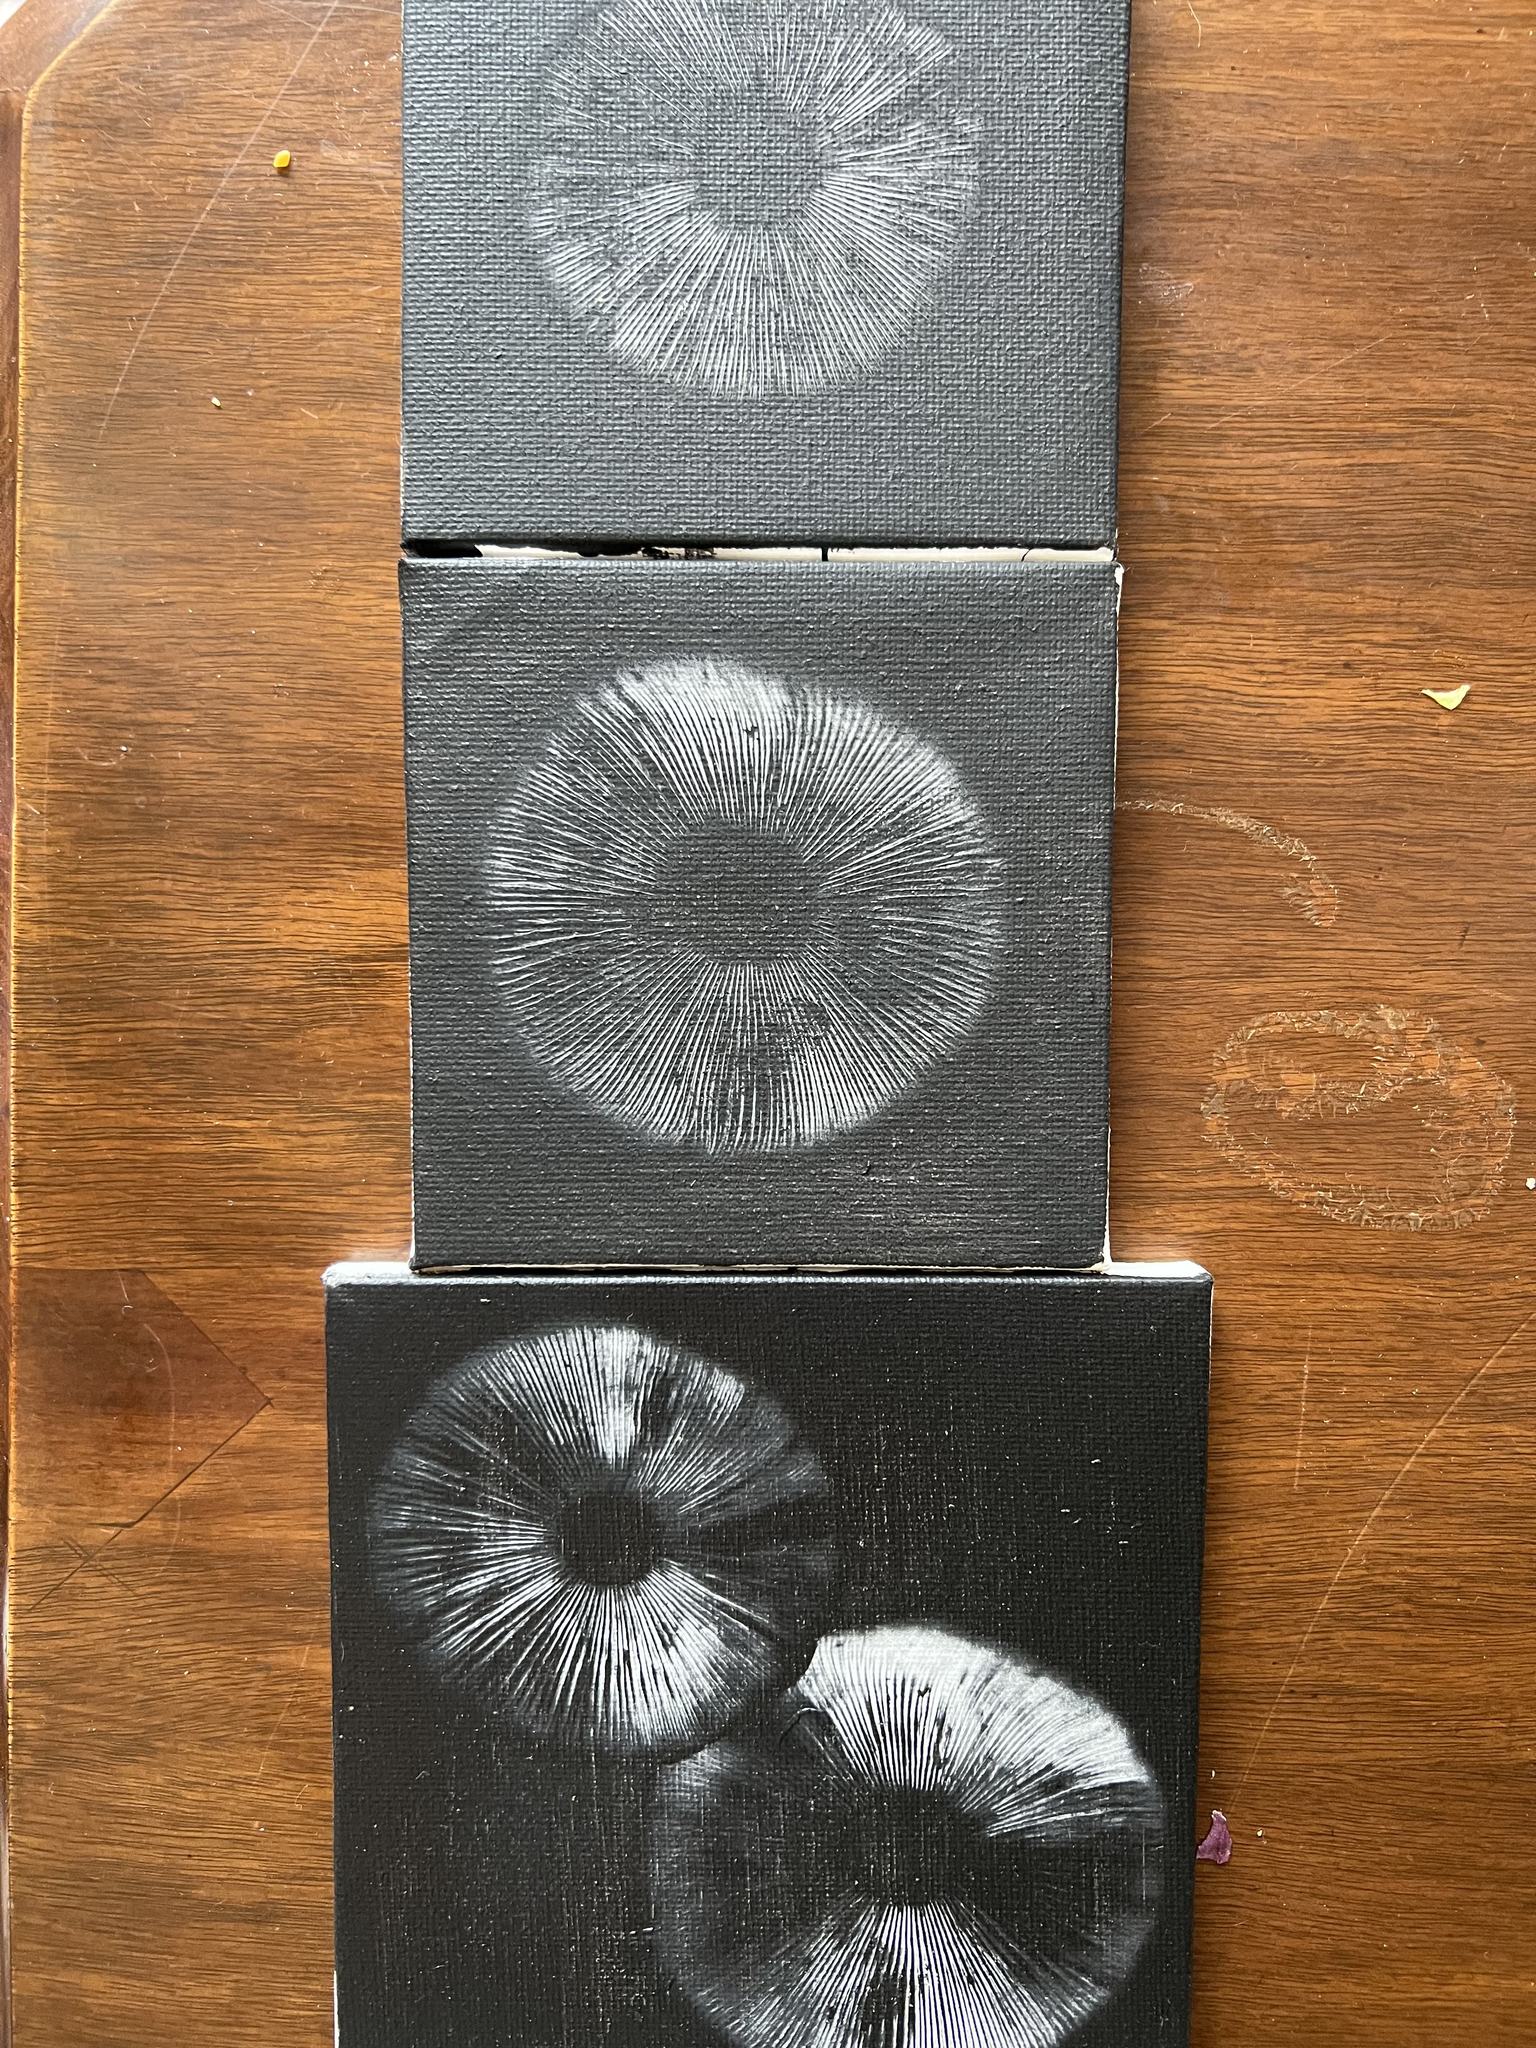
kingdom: Fungi
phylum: Basidiomycota
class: Agaricomycetes
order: Agaricales
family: Amanitaceae
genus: Amanita
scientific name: Amanita porphyria
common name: Grey veiled amanita
